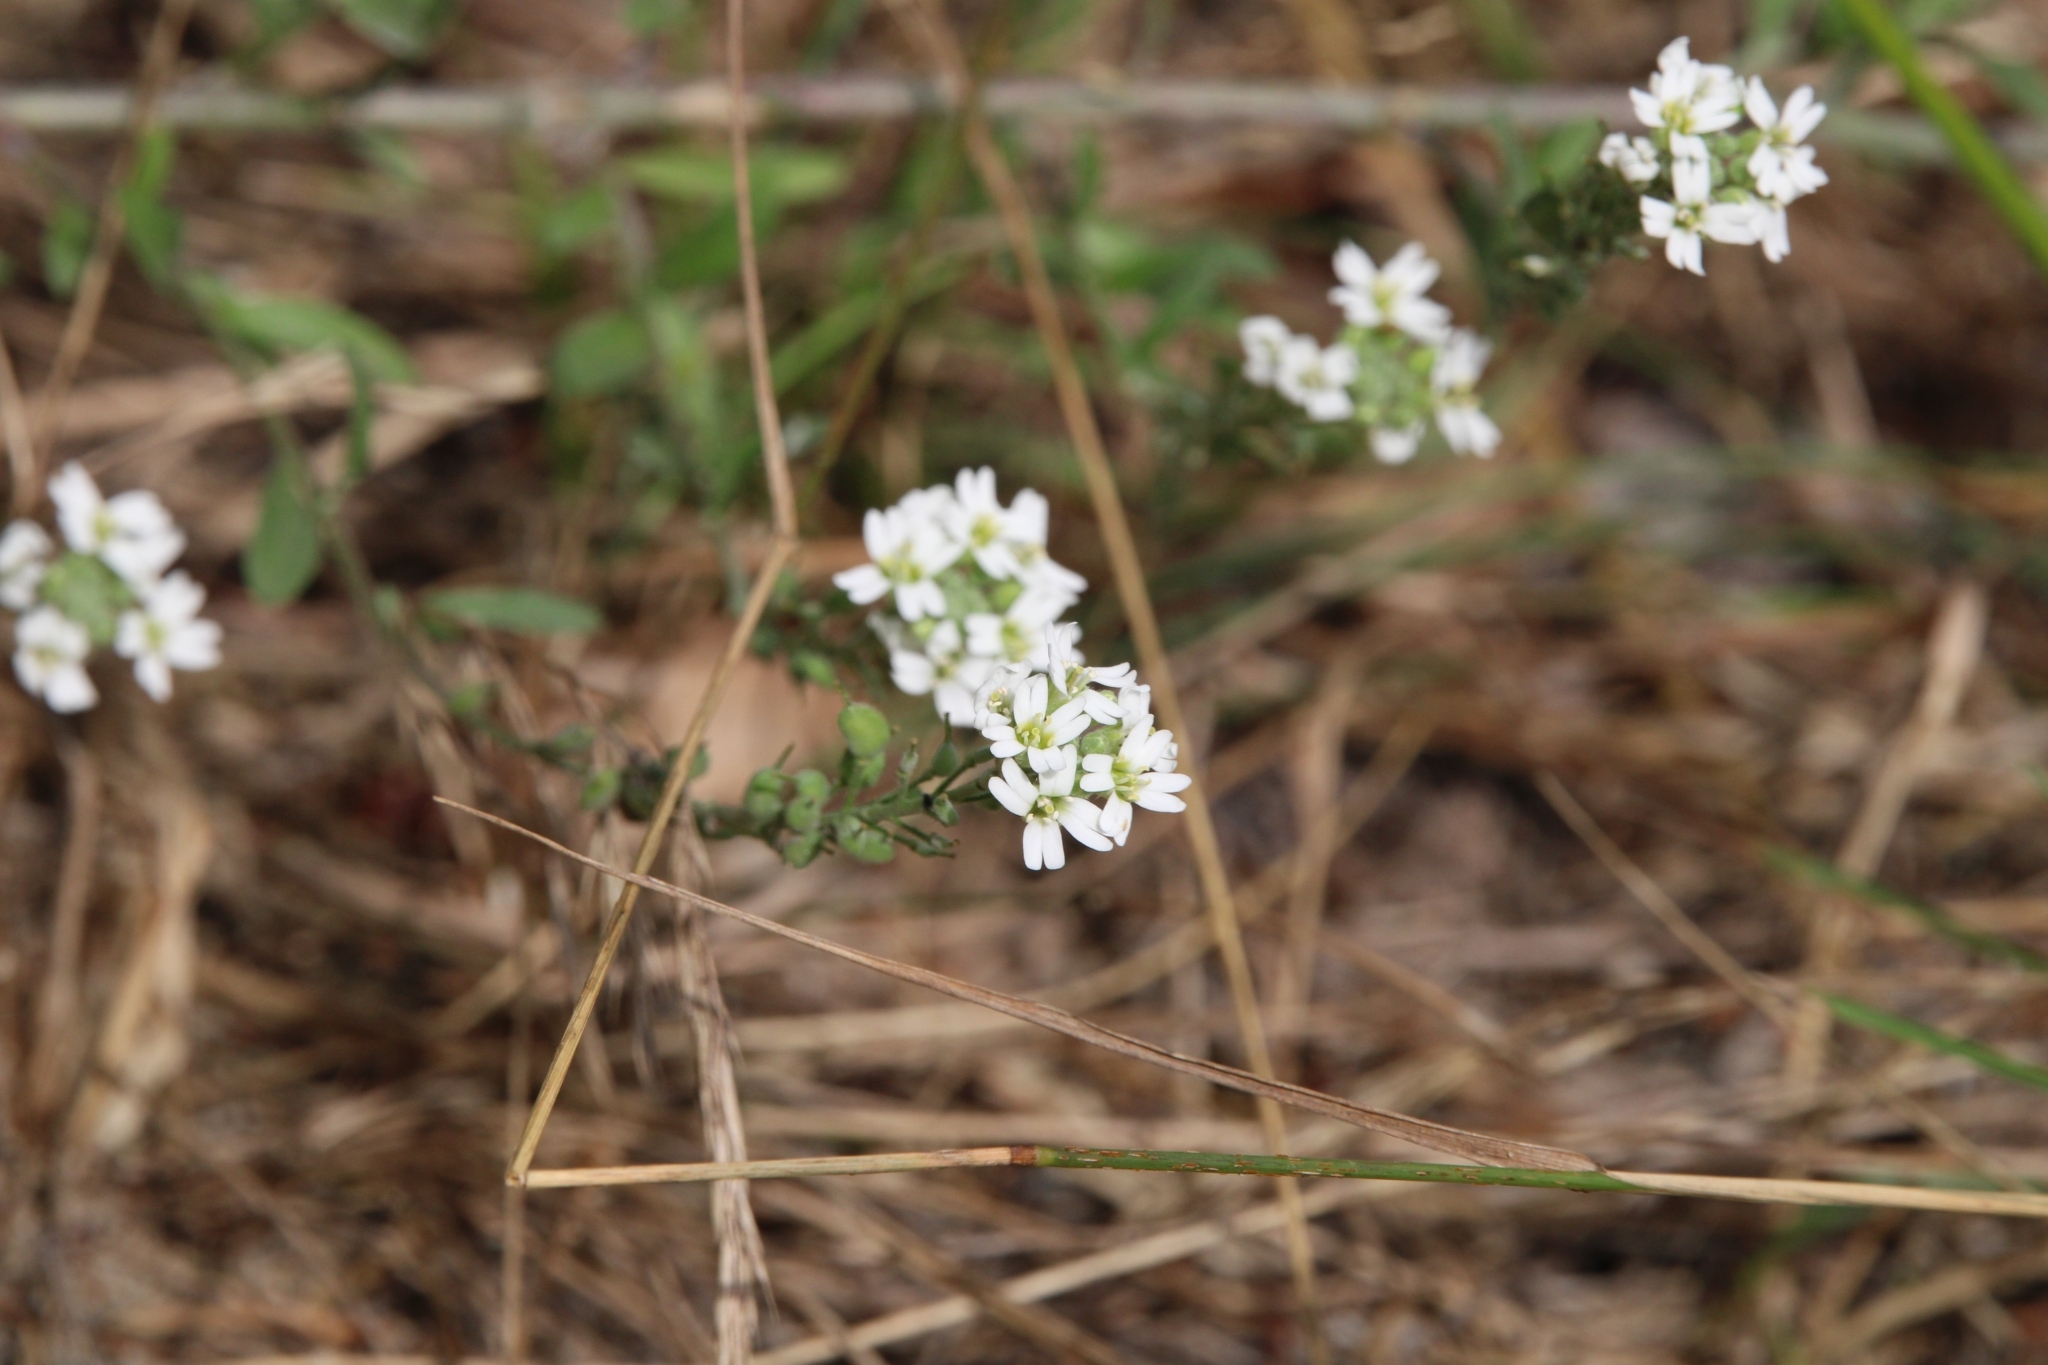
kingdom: Plantae
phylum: Tracheophyta
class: Magnoliopsida
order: Brassicales
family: Brassicaceae
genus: Berteroa
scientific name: Berteroa incana
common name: Hoary alison
